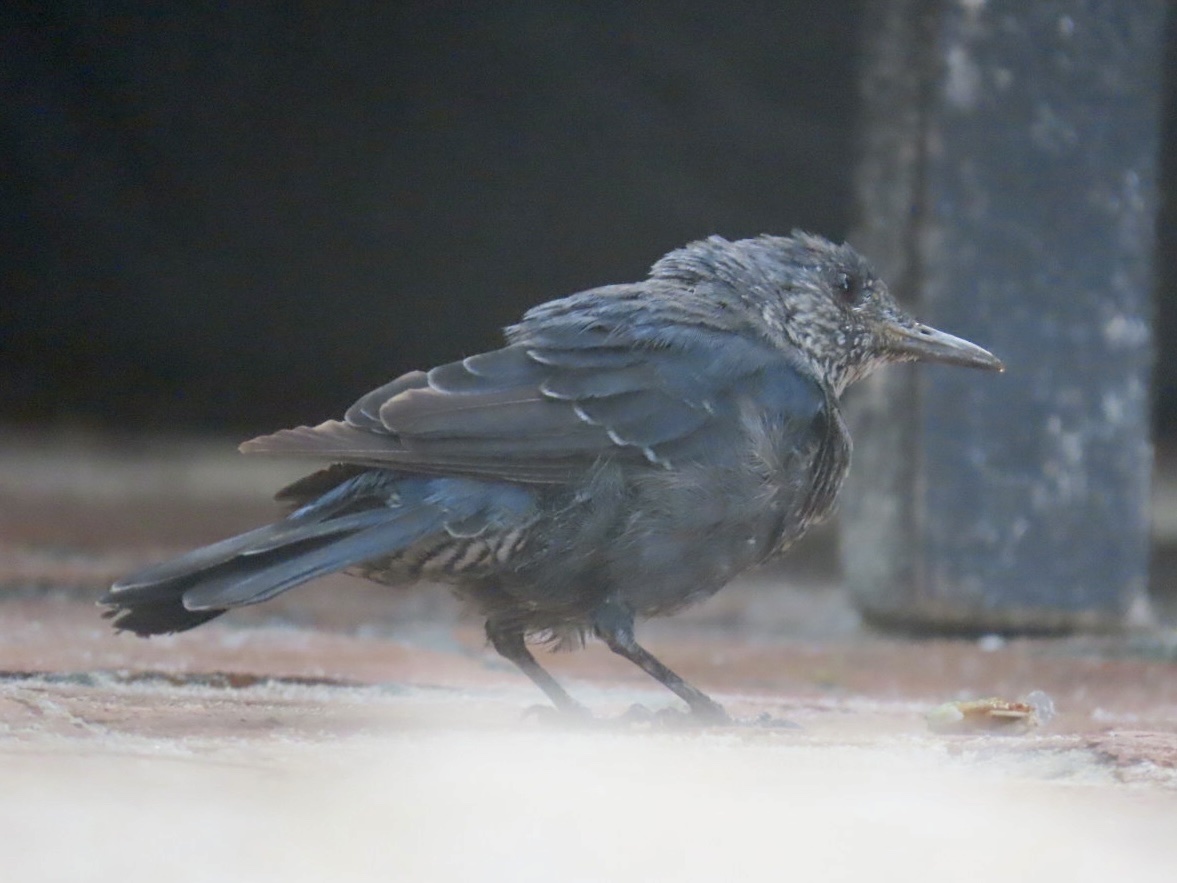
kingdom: Animalia
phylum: Chordata
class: Aves
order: Passeriformes
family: Muscicapidae
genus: Monticola
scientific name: Monticola solitarius
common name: Blue rock thrush
